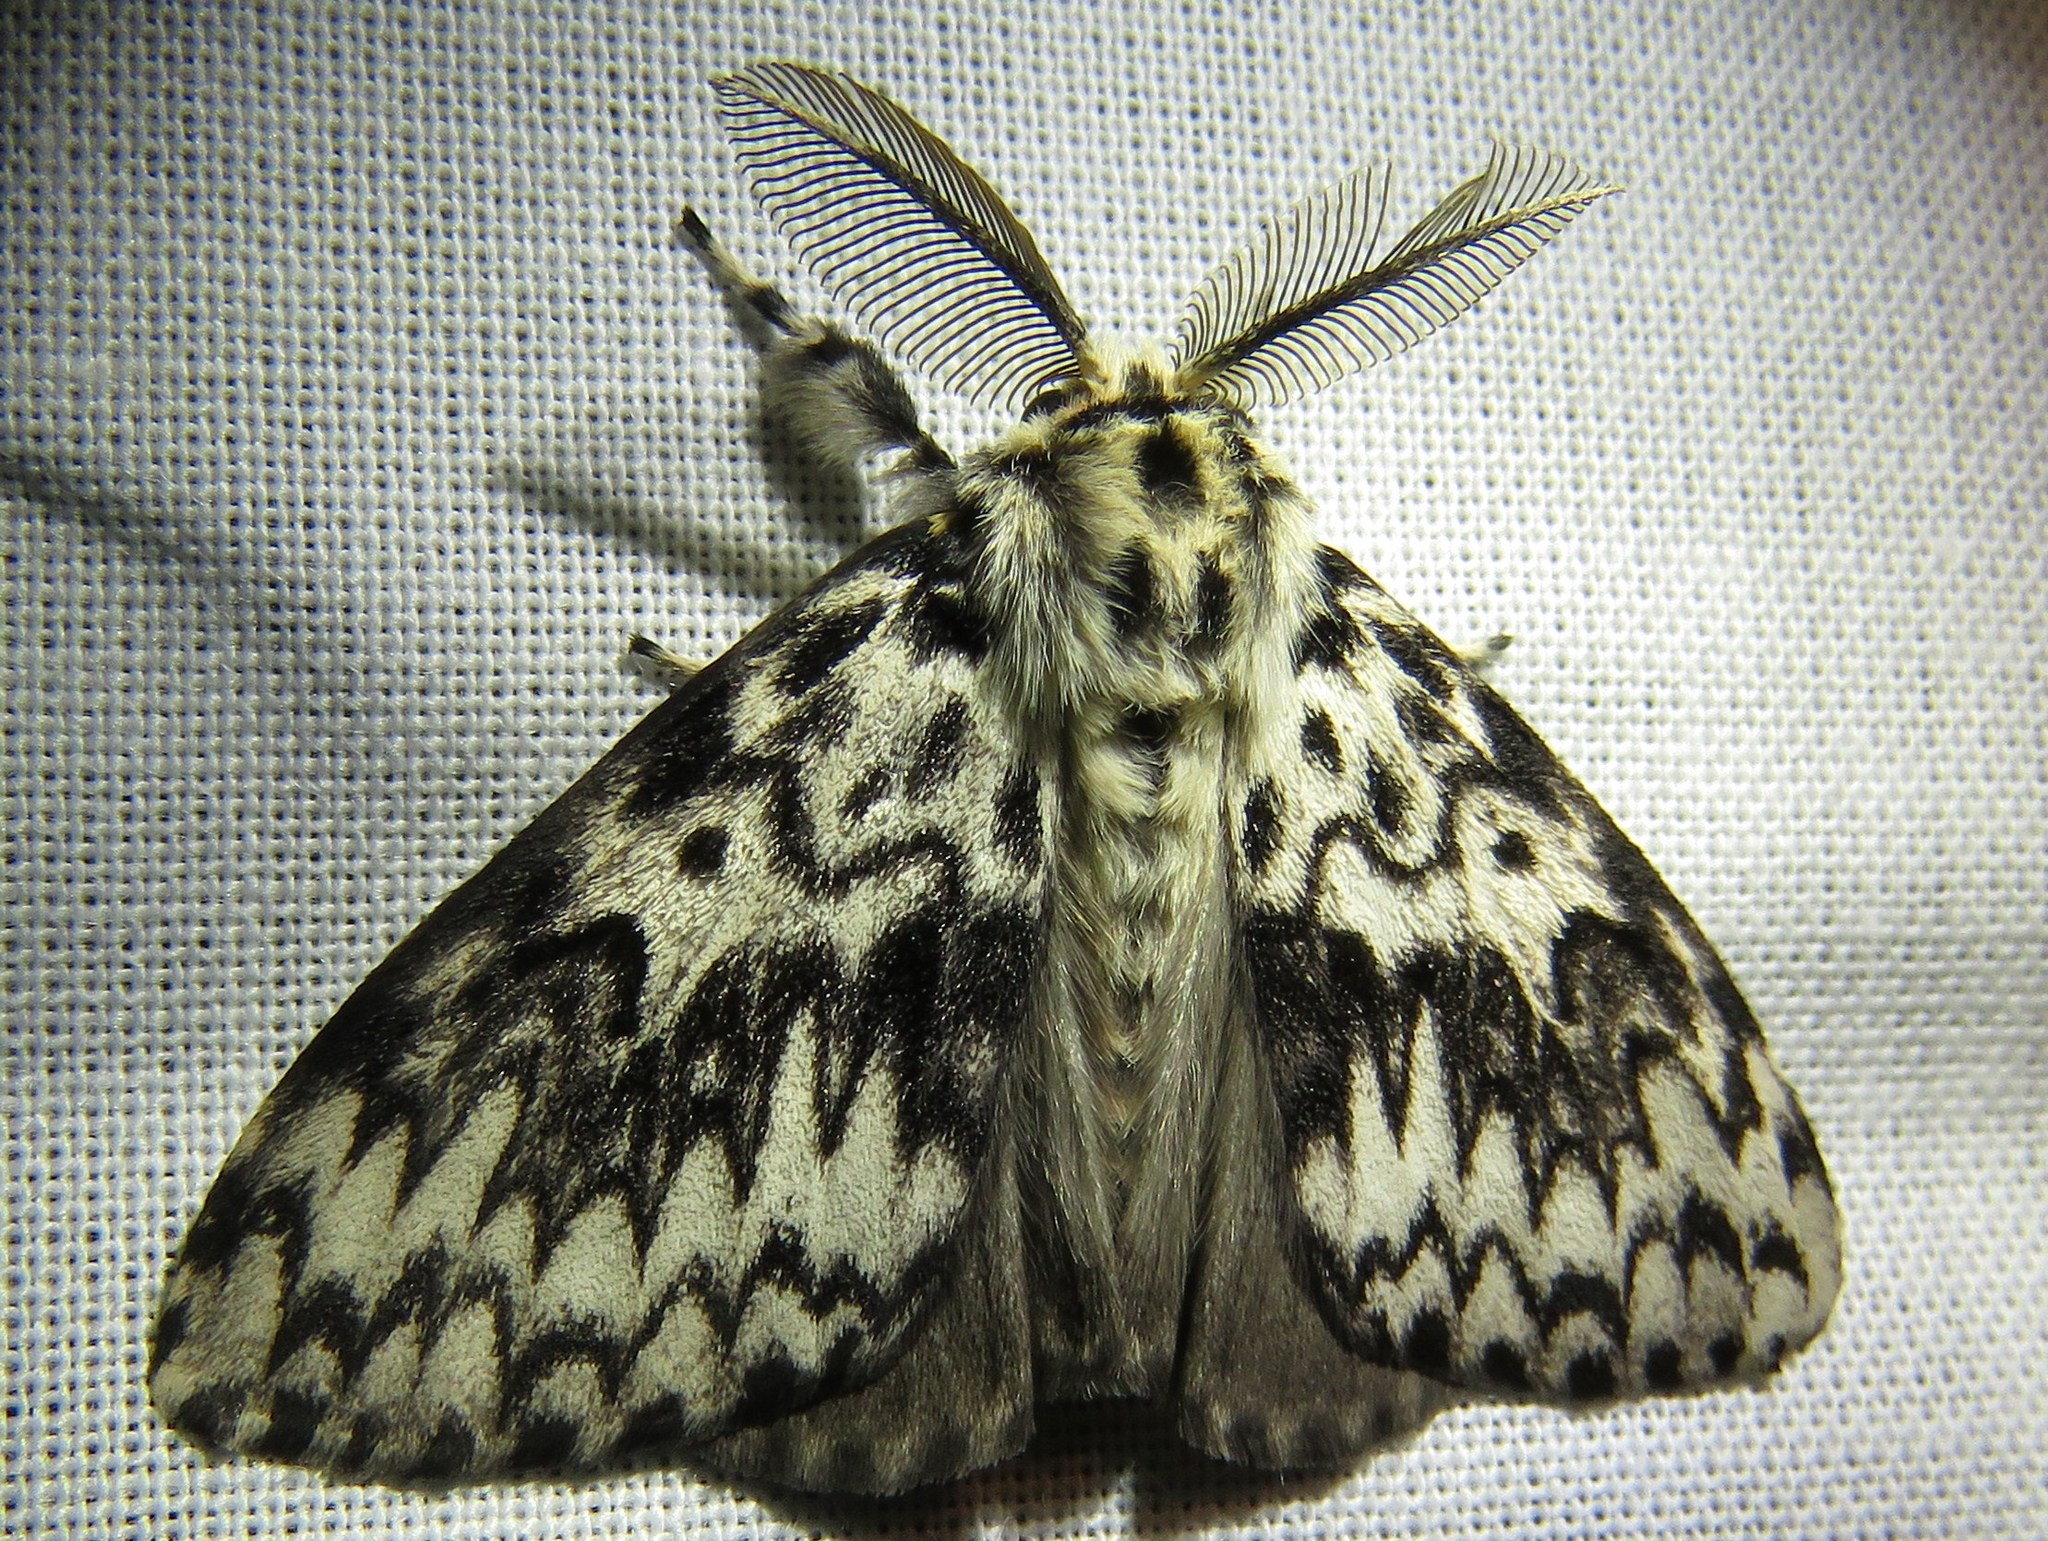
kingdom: Animalia
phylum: Arthropoda
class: Insecta
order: Lepidoptera
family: Erebidae
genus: Lymantria
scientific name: Lymantria monacha
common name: Black arches
